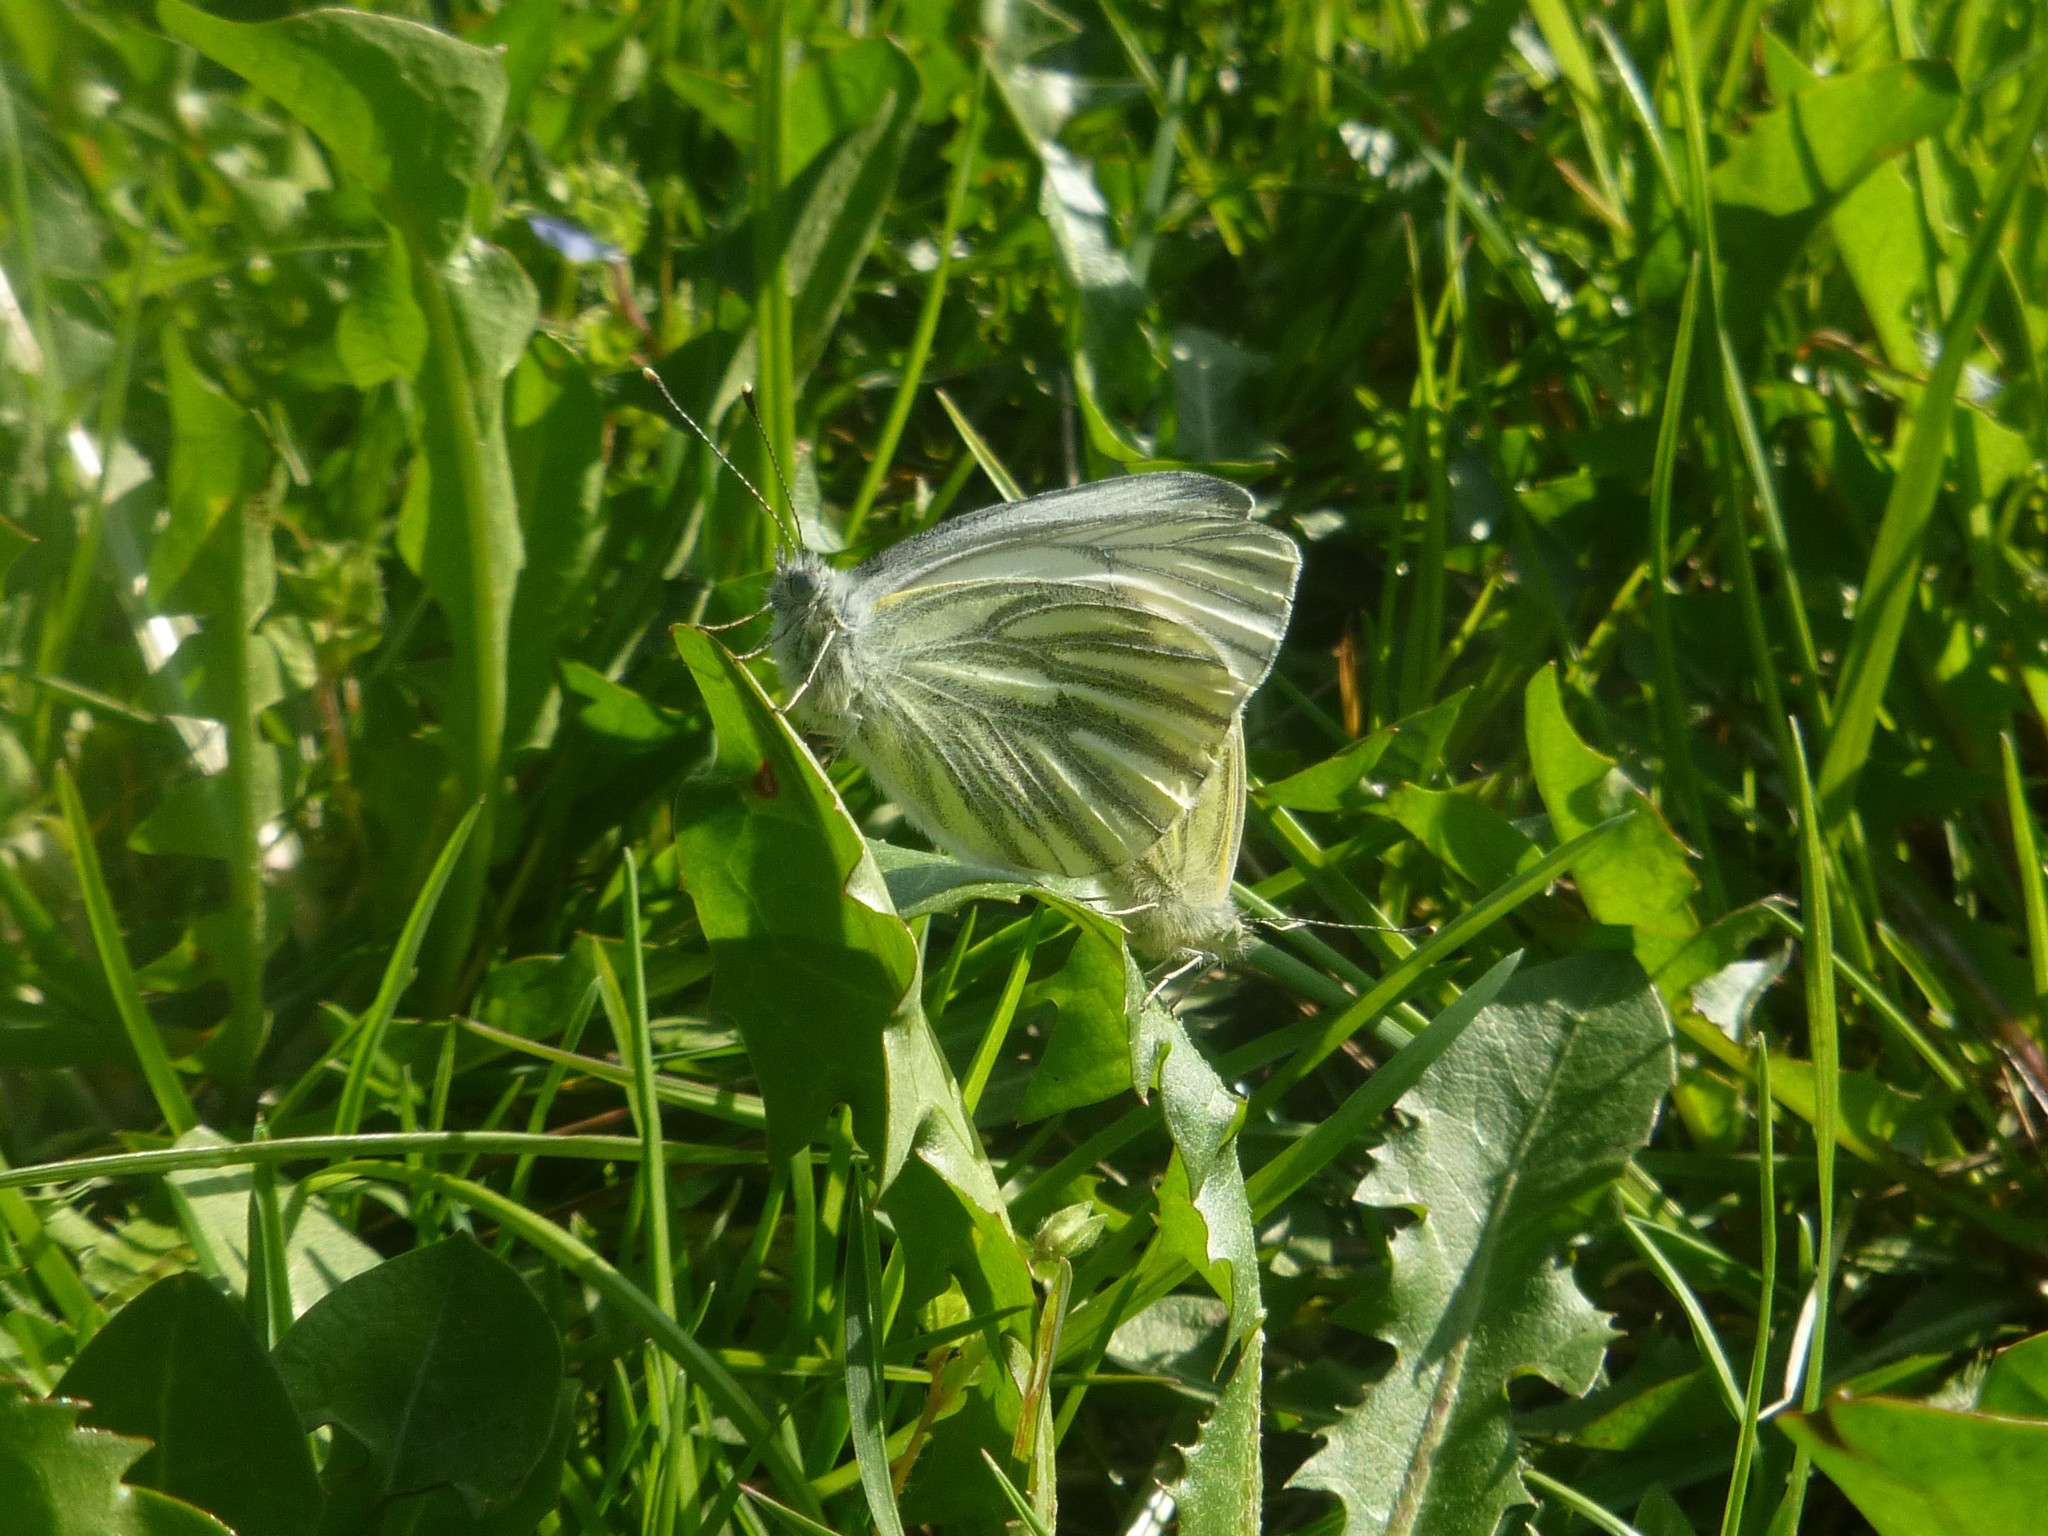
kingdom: Animalia
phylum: Arthropoda
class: Insecta
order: Lepidoptera
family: Pieridae
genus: Pieris
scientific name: Pieris napi
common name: Green-veined white
